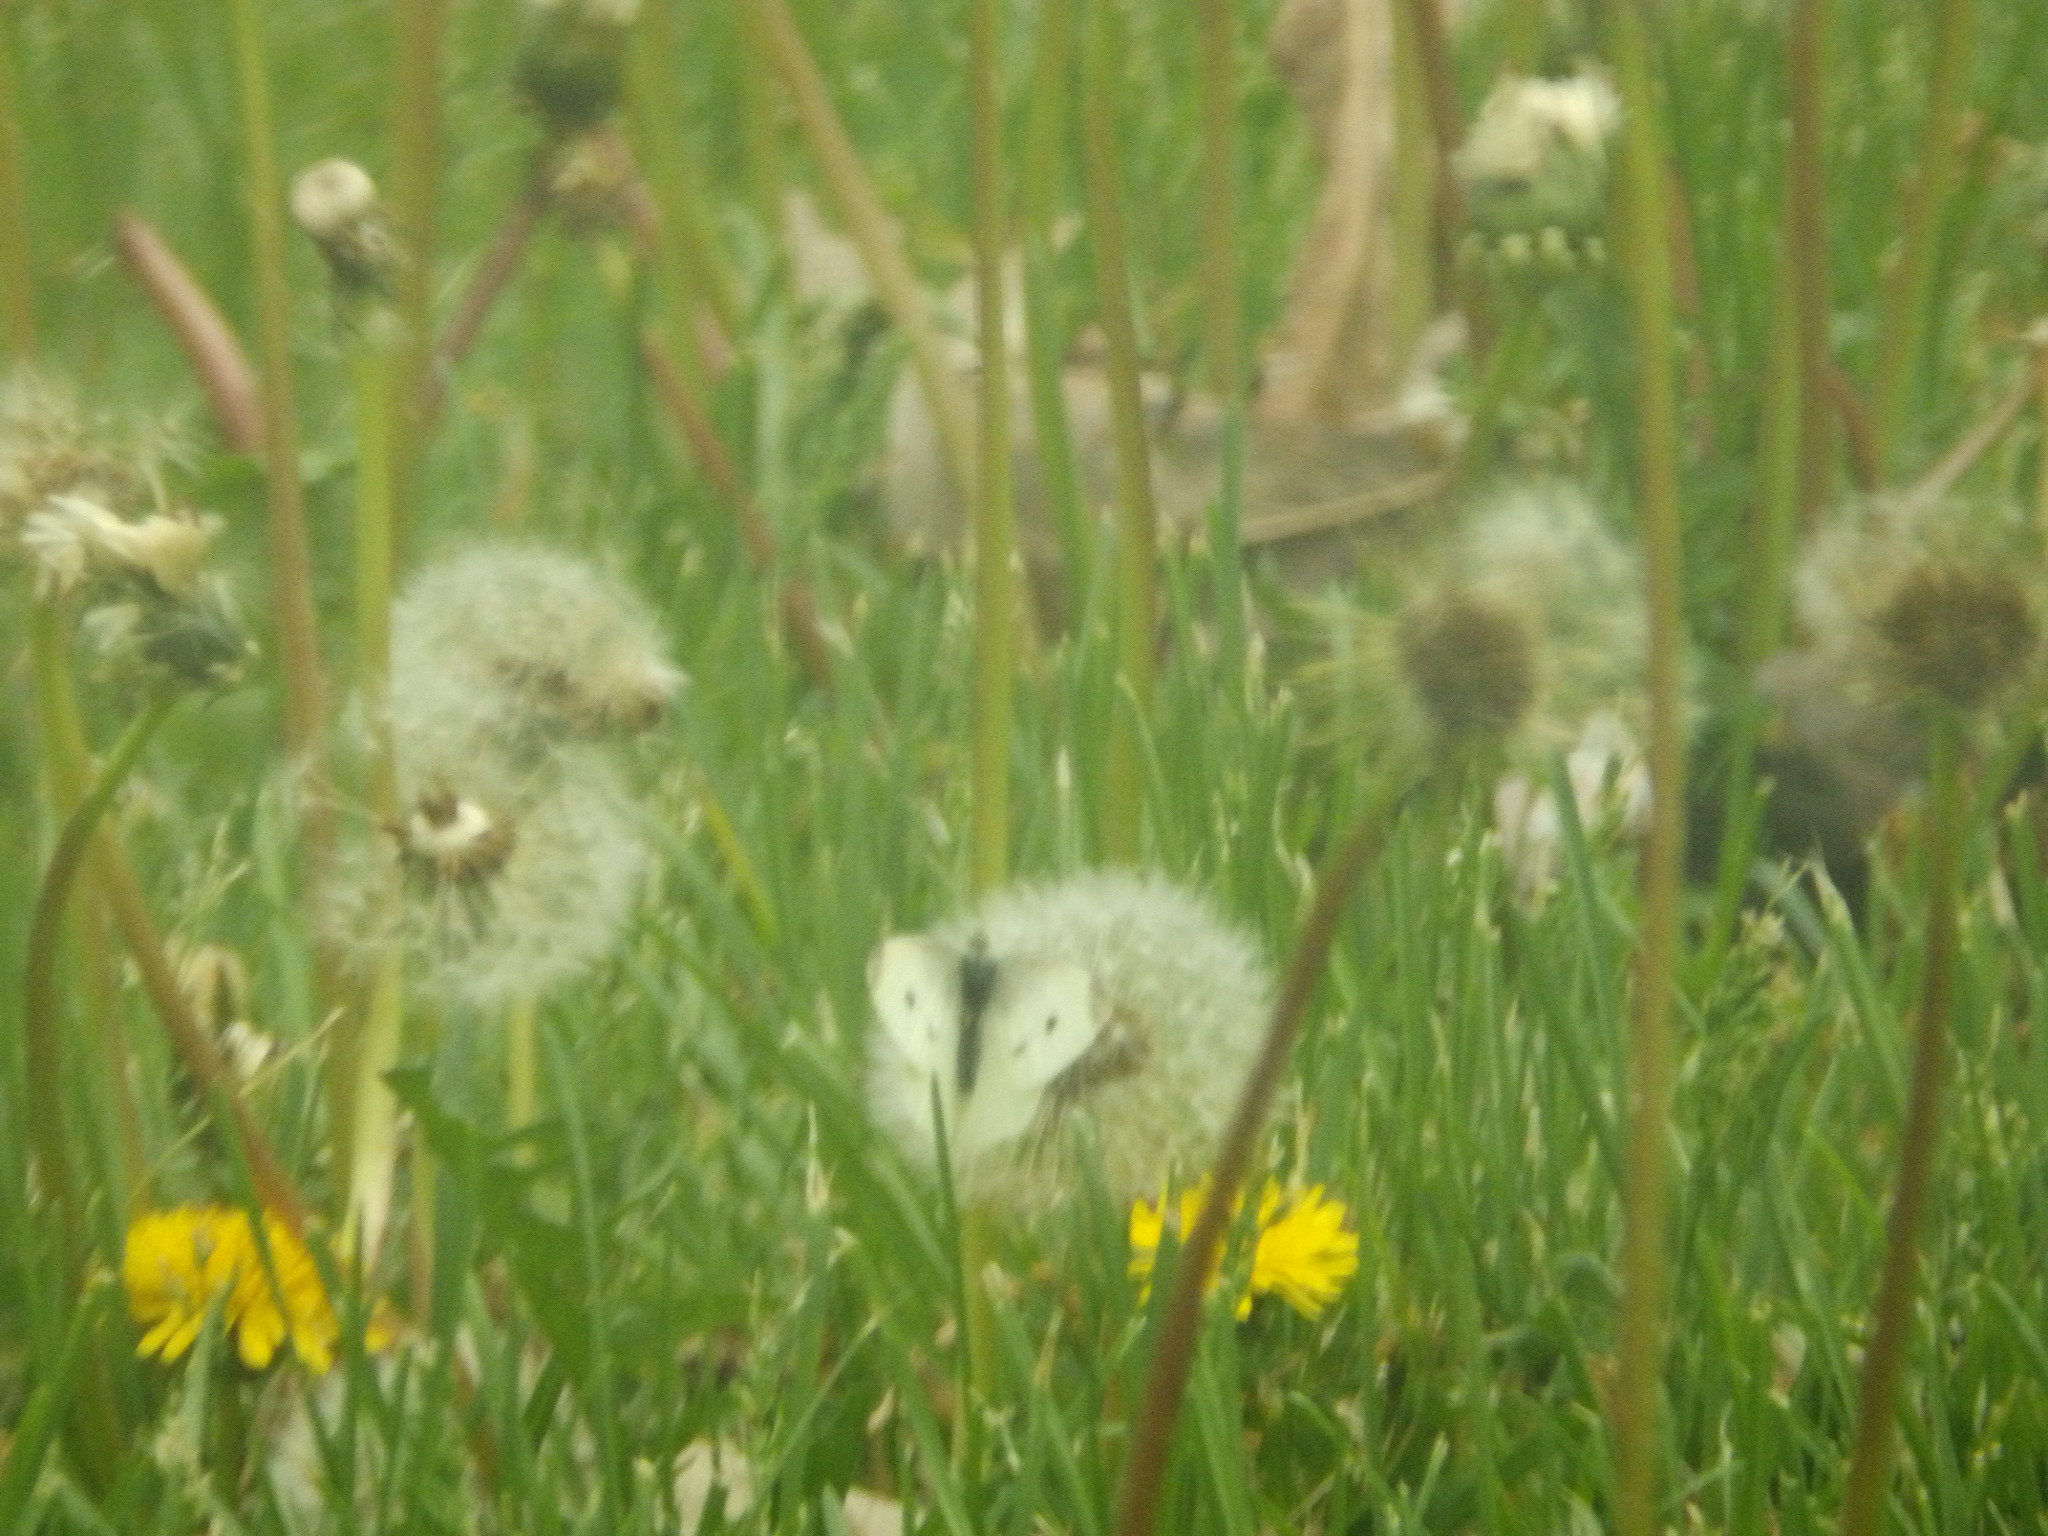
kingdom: Animalia
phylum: Arthropoda
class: Insecta
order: Lepidoptera
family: Pieridae
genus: Pieris
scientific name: Pieris rapae
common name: Small white
